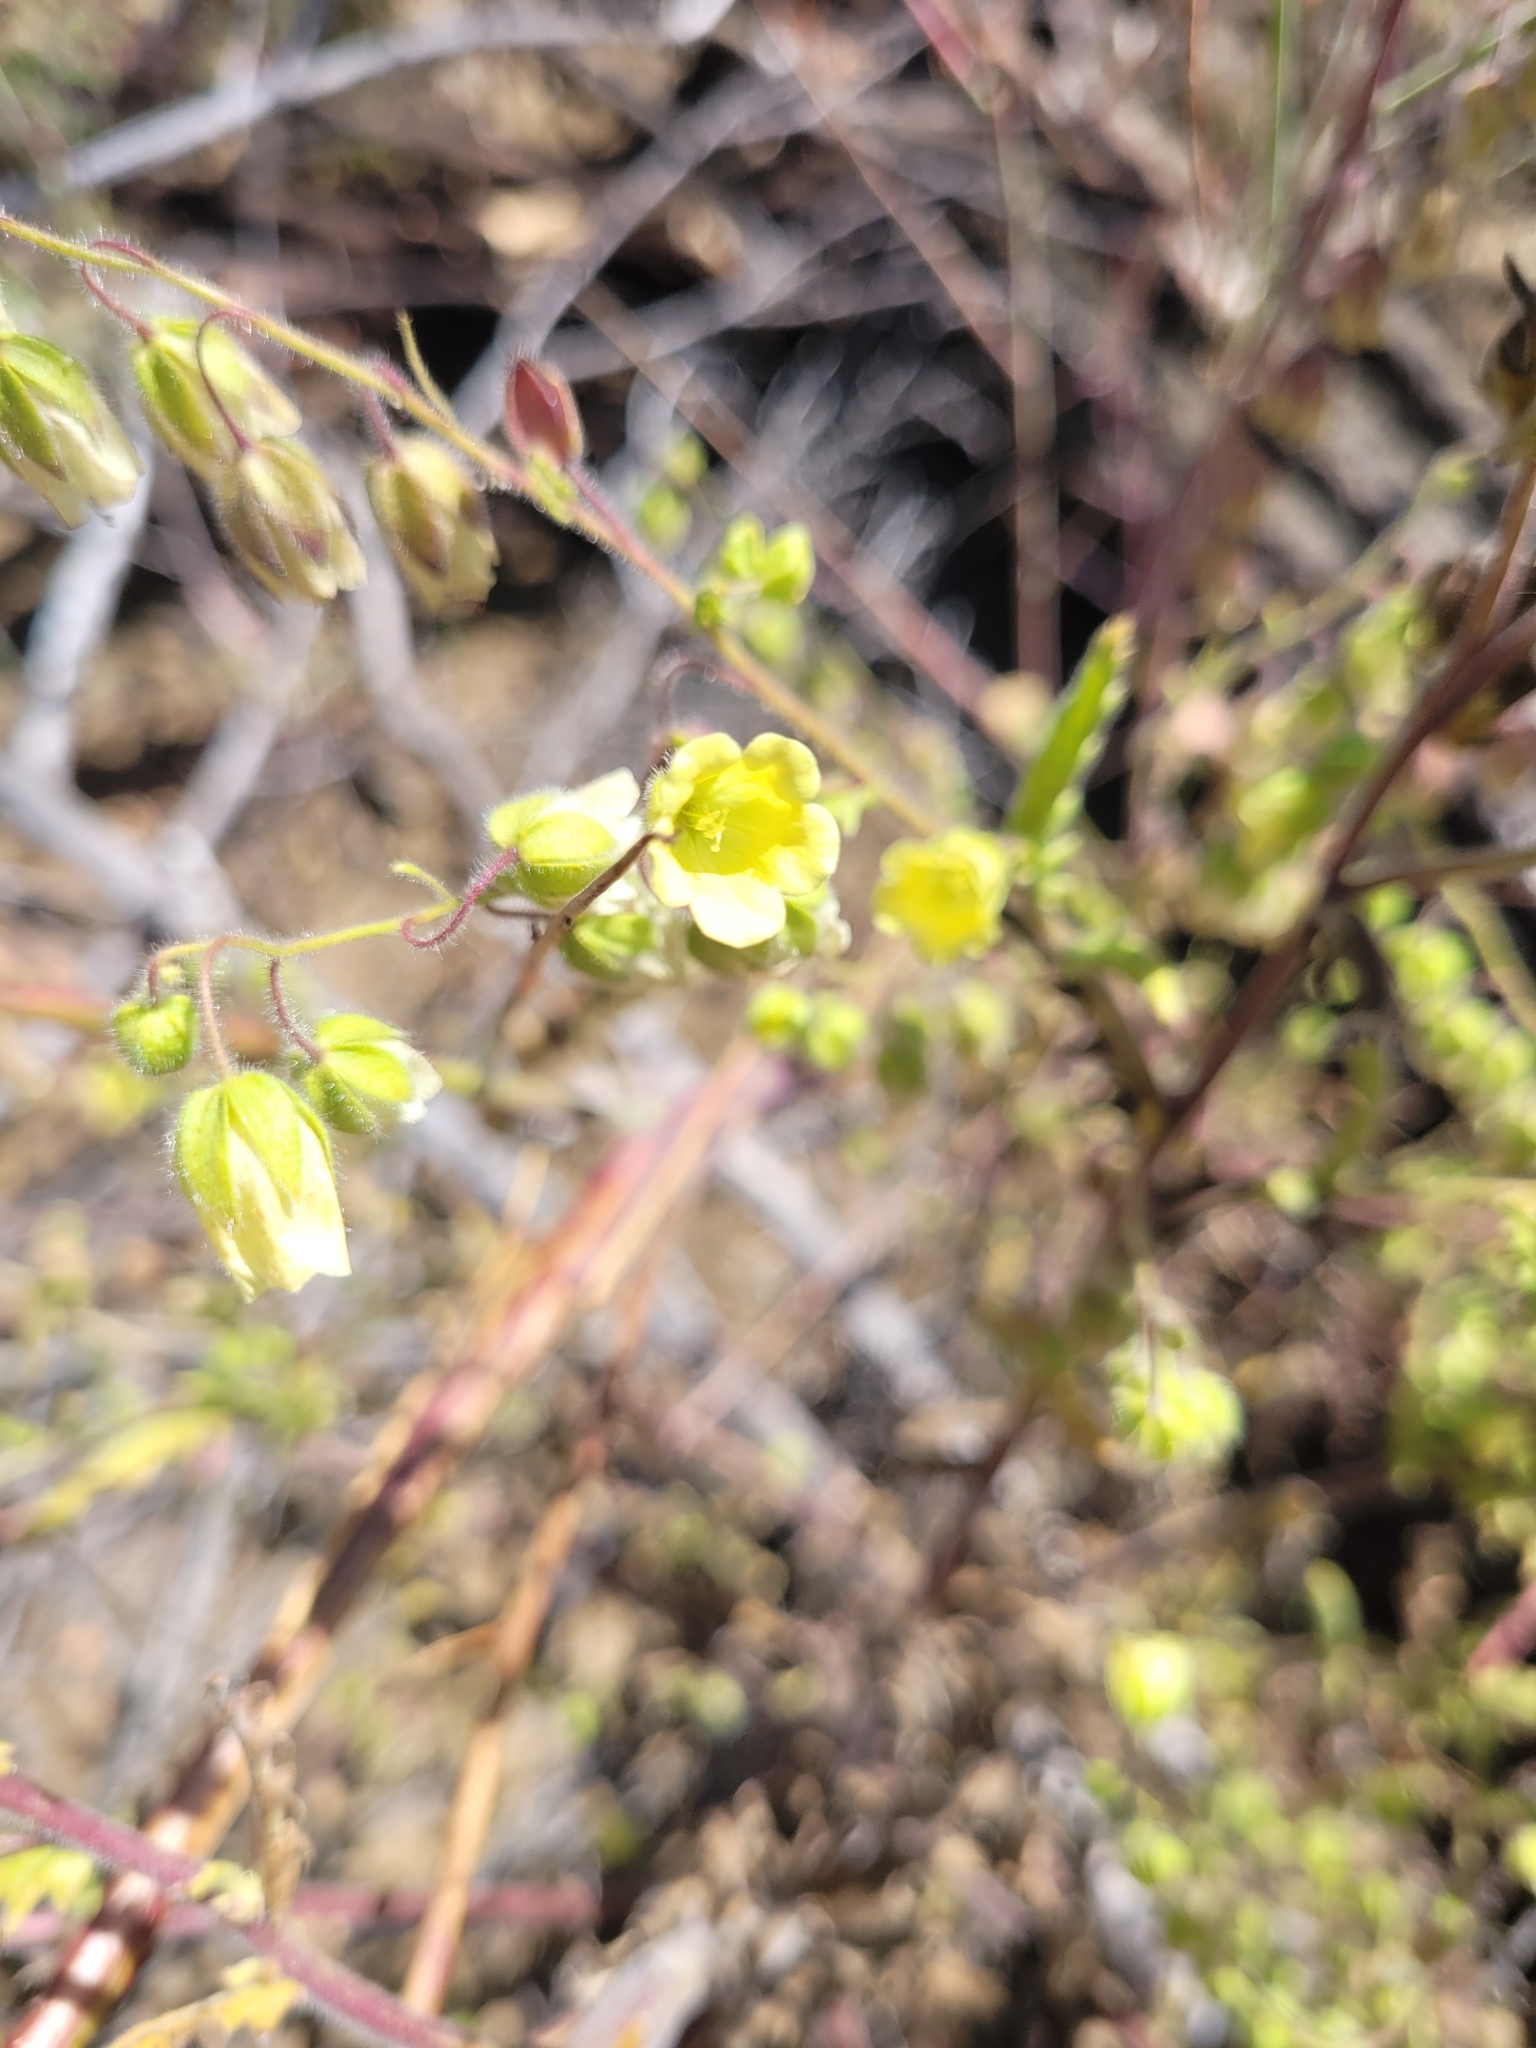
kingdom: Plantae
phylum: Tracheophyta
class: Magnoliopsida
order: Boraginales
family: Hydrophyllaceae
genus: Emmenanthe
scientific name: Emmenanthe penduliflora
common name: Whispering-bells
